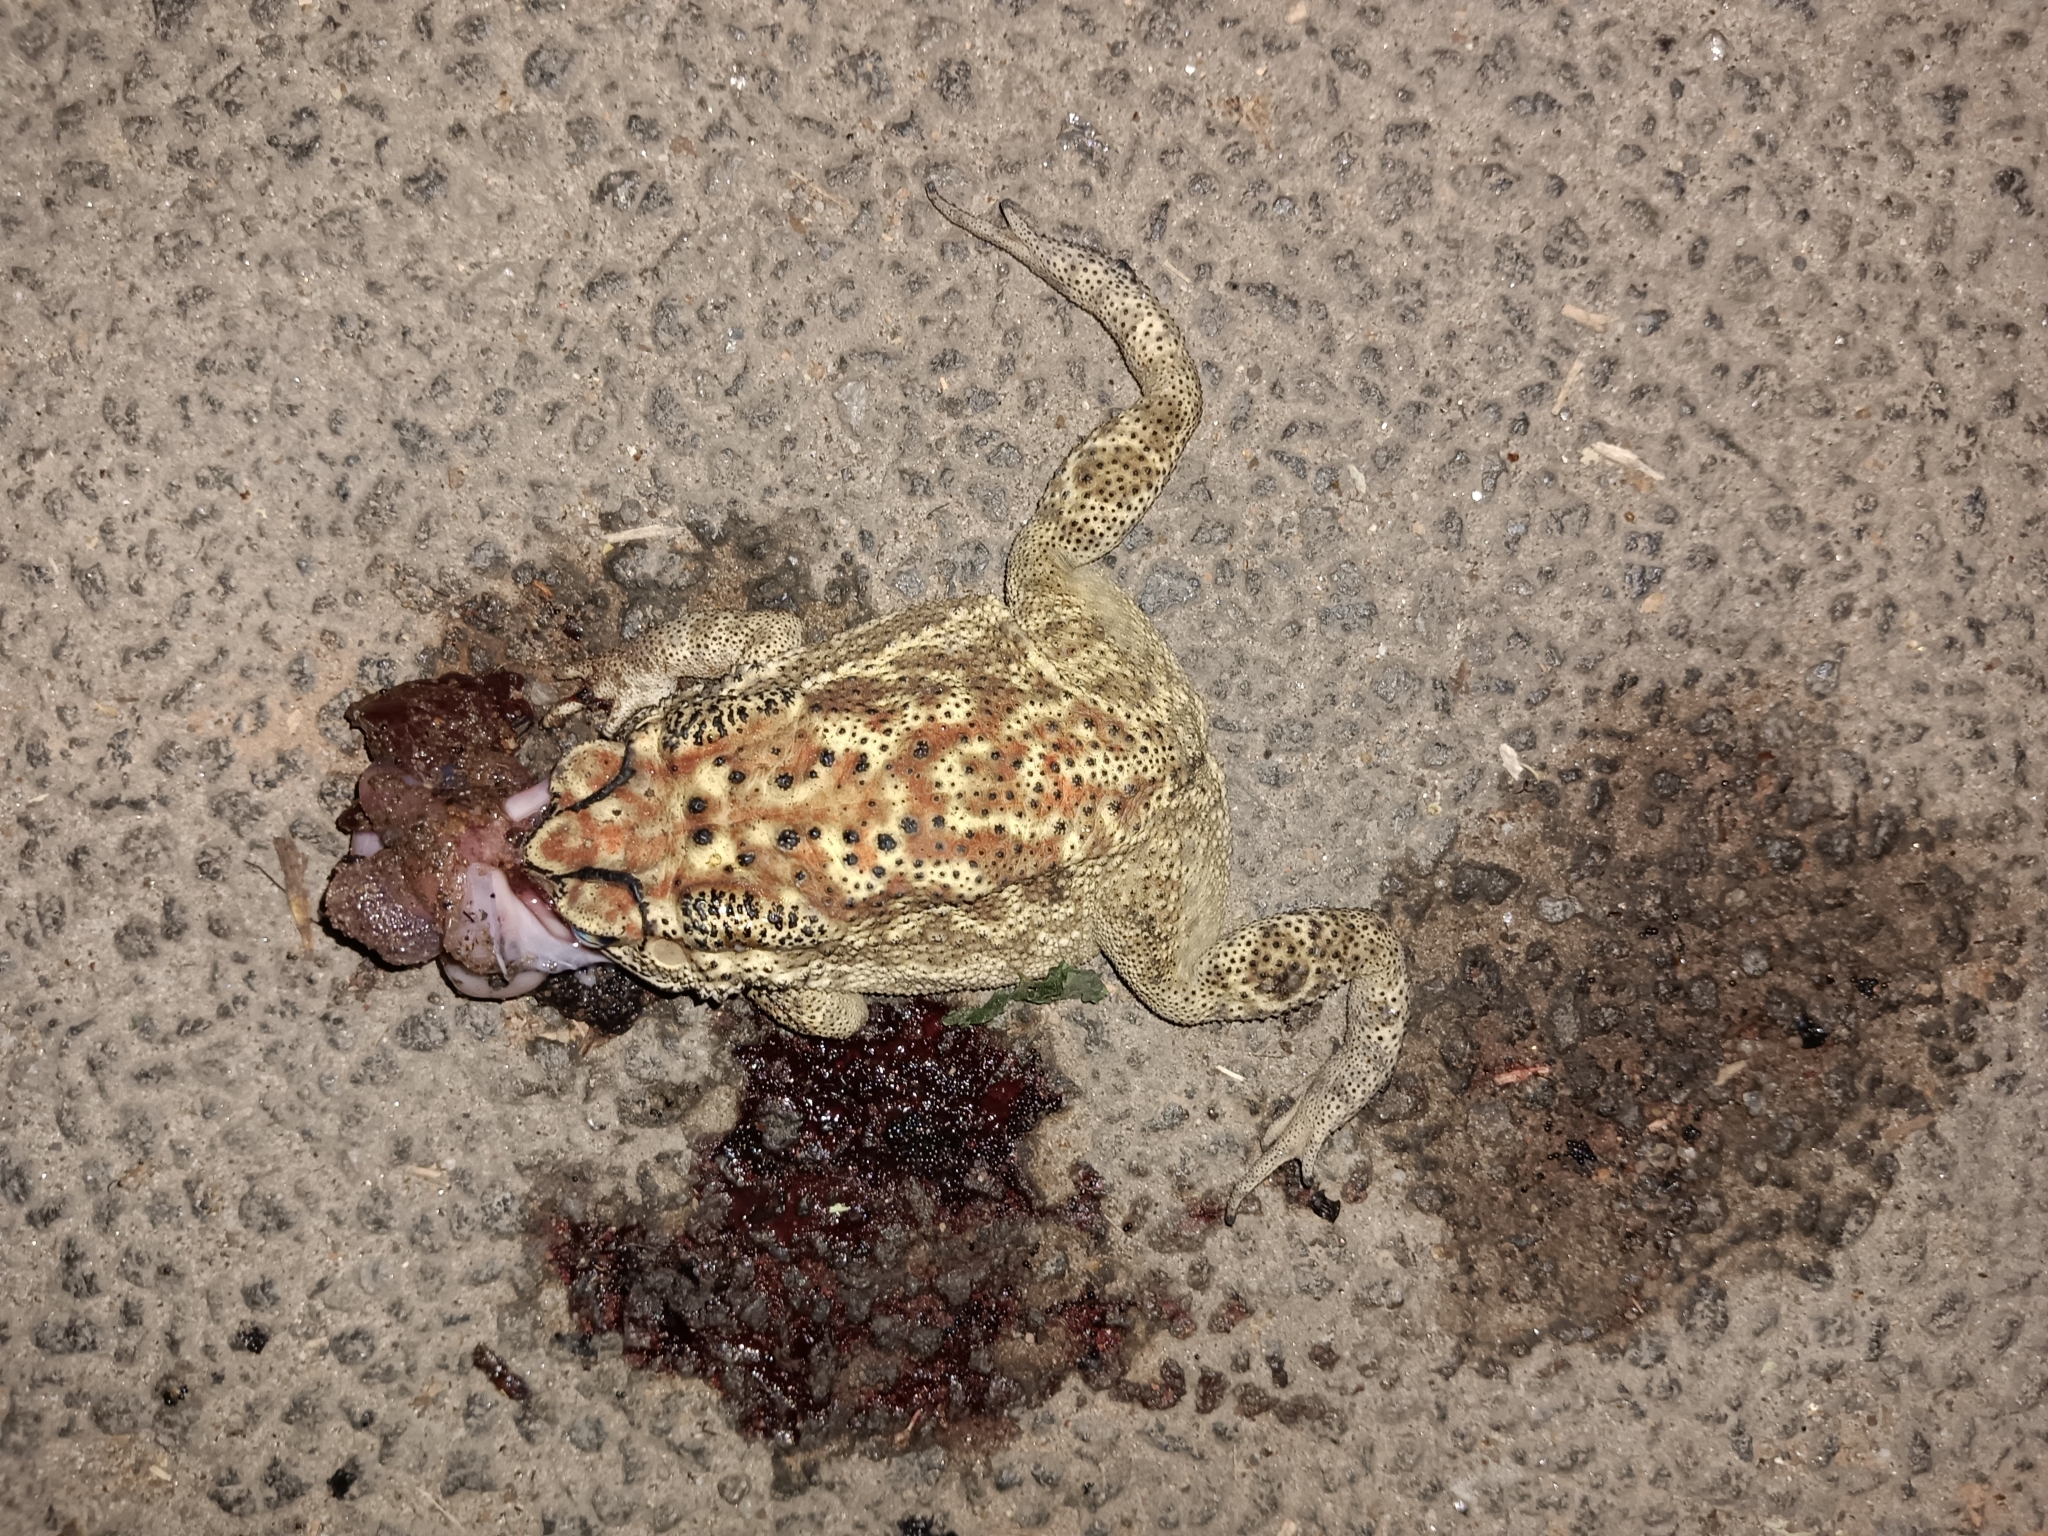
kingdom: Animalia
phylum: Chordata
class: Amphibia
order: Anura
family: Bufonidae
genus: Duttaphrynus
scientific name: Duttaphrynus melanostictus
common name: Common sunda toad
